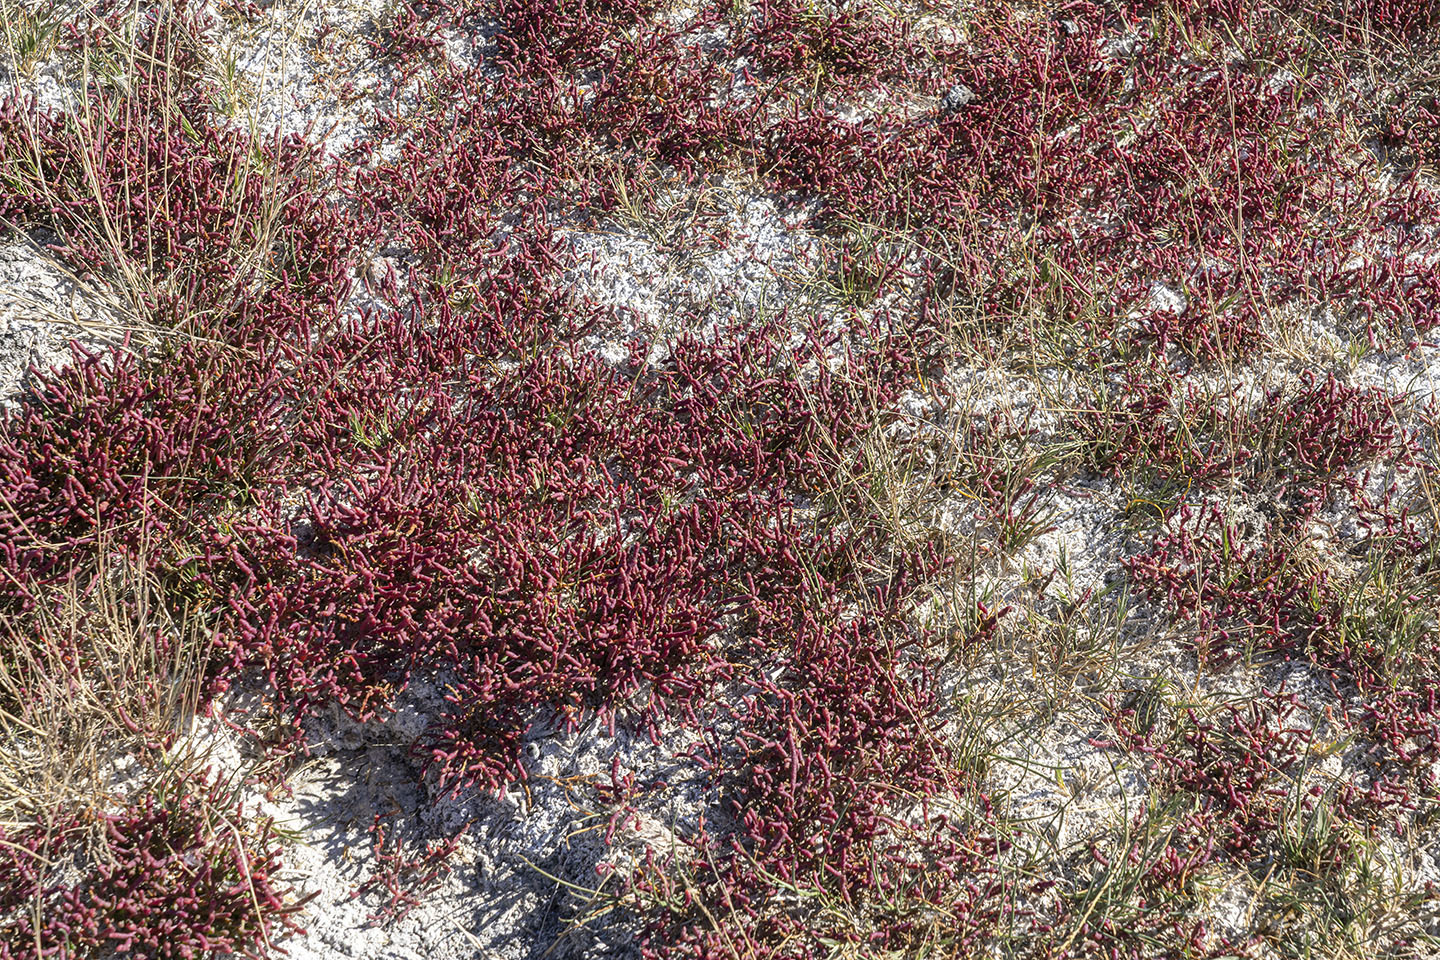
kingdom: Plantae
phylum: Tracheophyta
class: Magnoliopsida
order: Caryophyllales
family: Amaranthaceae
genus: Salicornia
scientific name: Salicornia rubra
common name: Red glasswort
